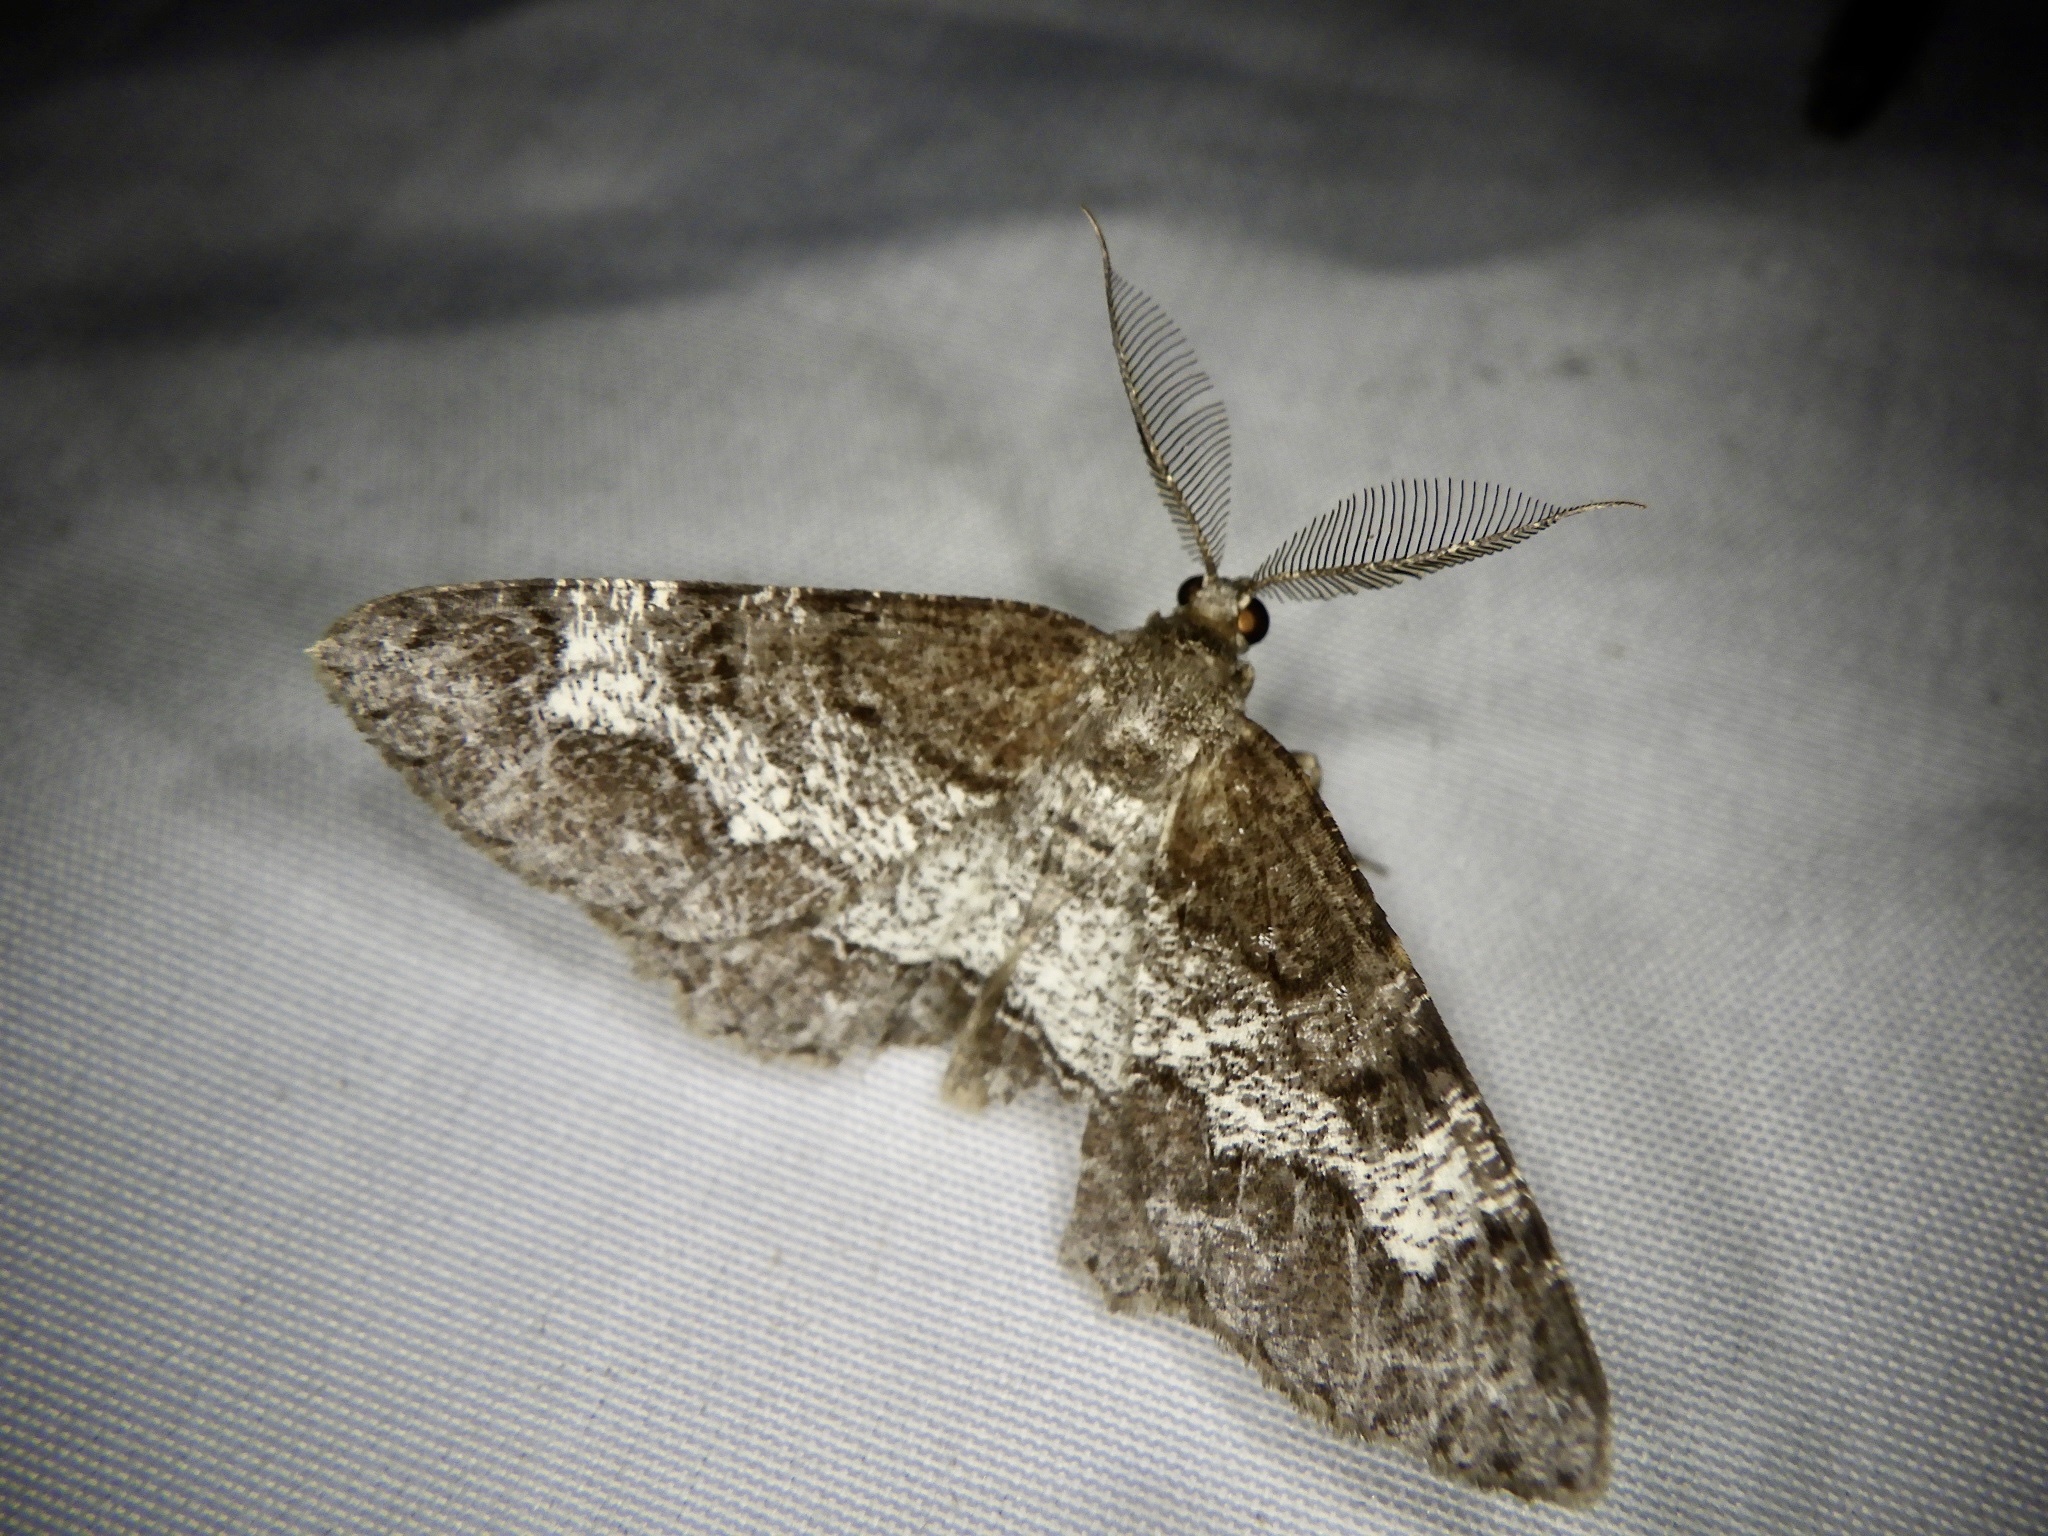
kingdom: Animalia
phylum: Arthropoda
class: Insecta
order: Lepidoptera
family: Geometridae
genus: Alcis
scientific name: Alcis angulifera
